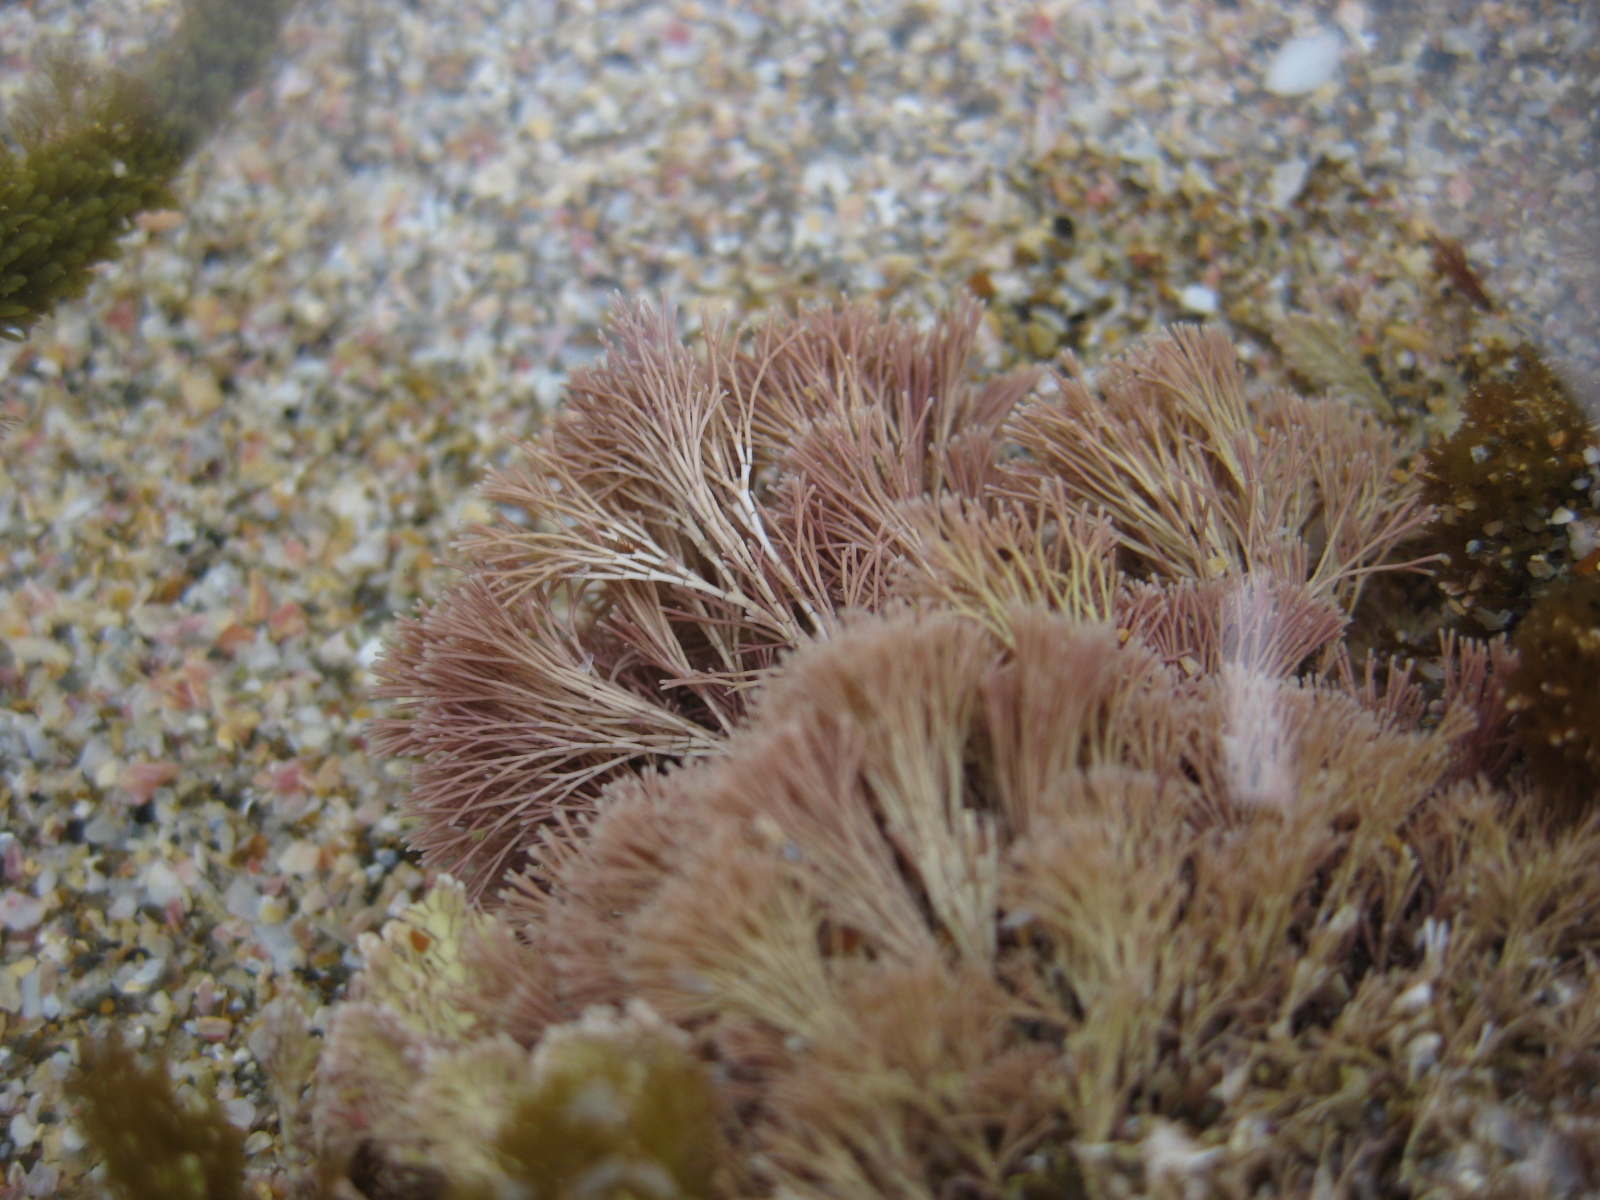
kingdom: Plantae
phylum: Rhodophyta
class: Florideophyceae
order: Corallinales
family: Corallinaceae
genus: Jania
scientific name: Jania
